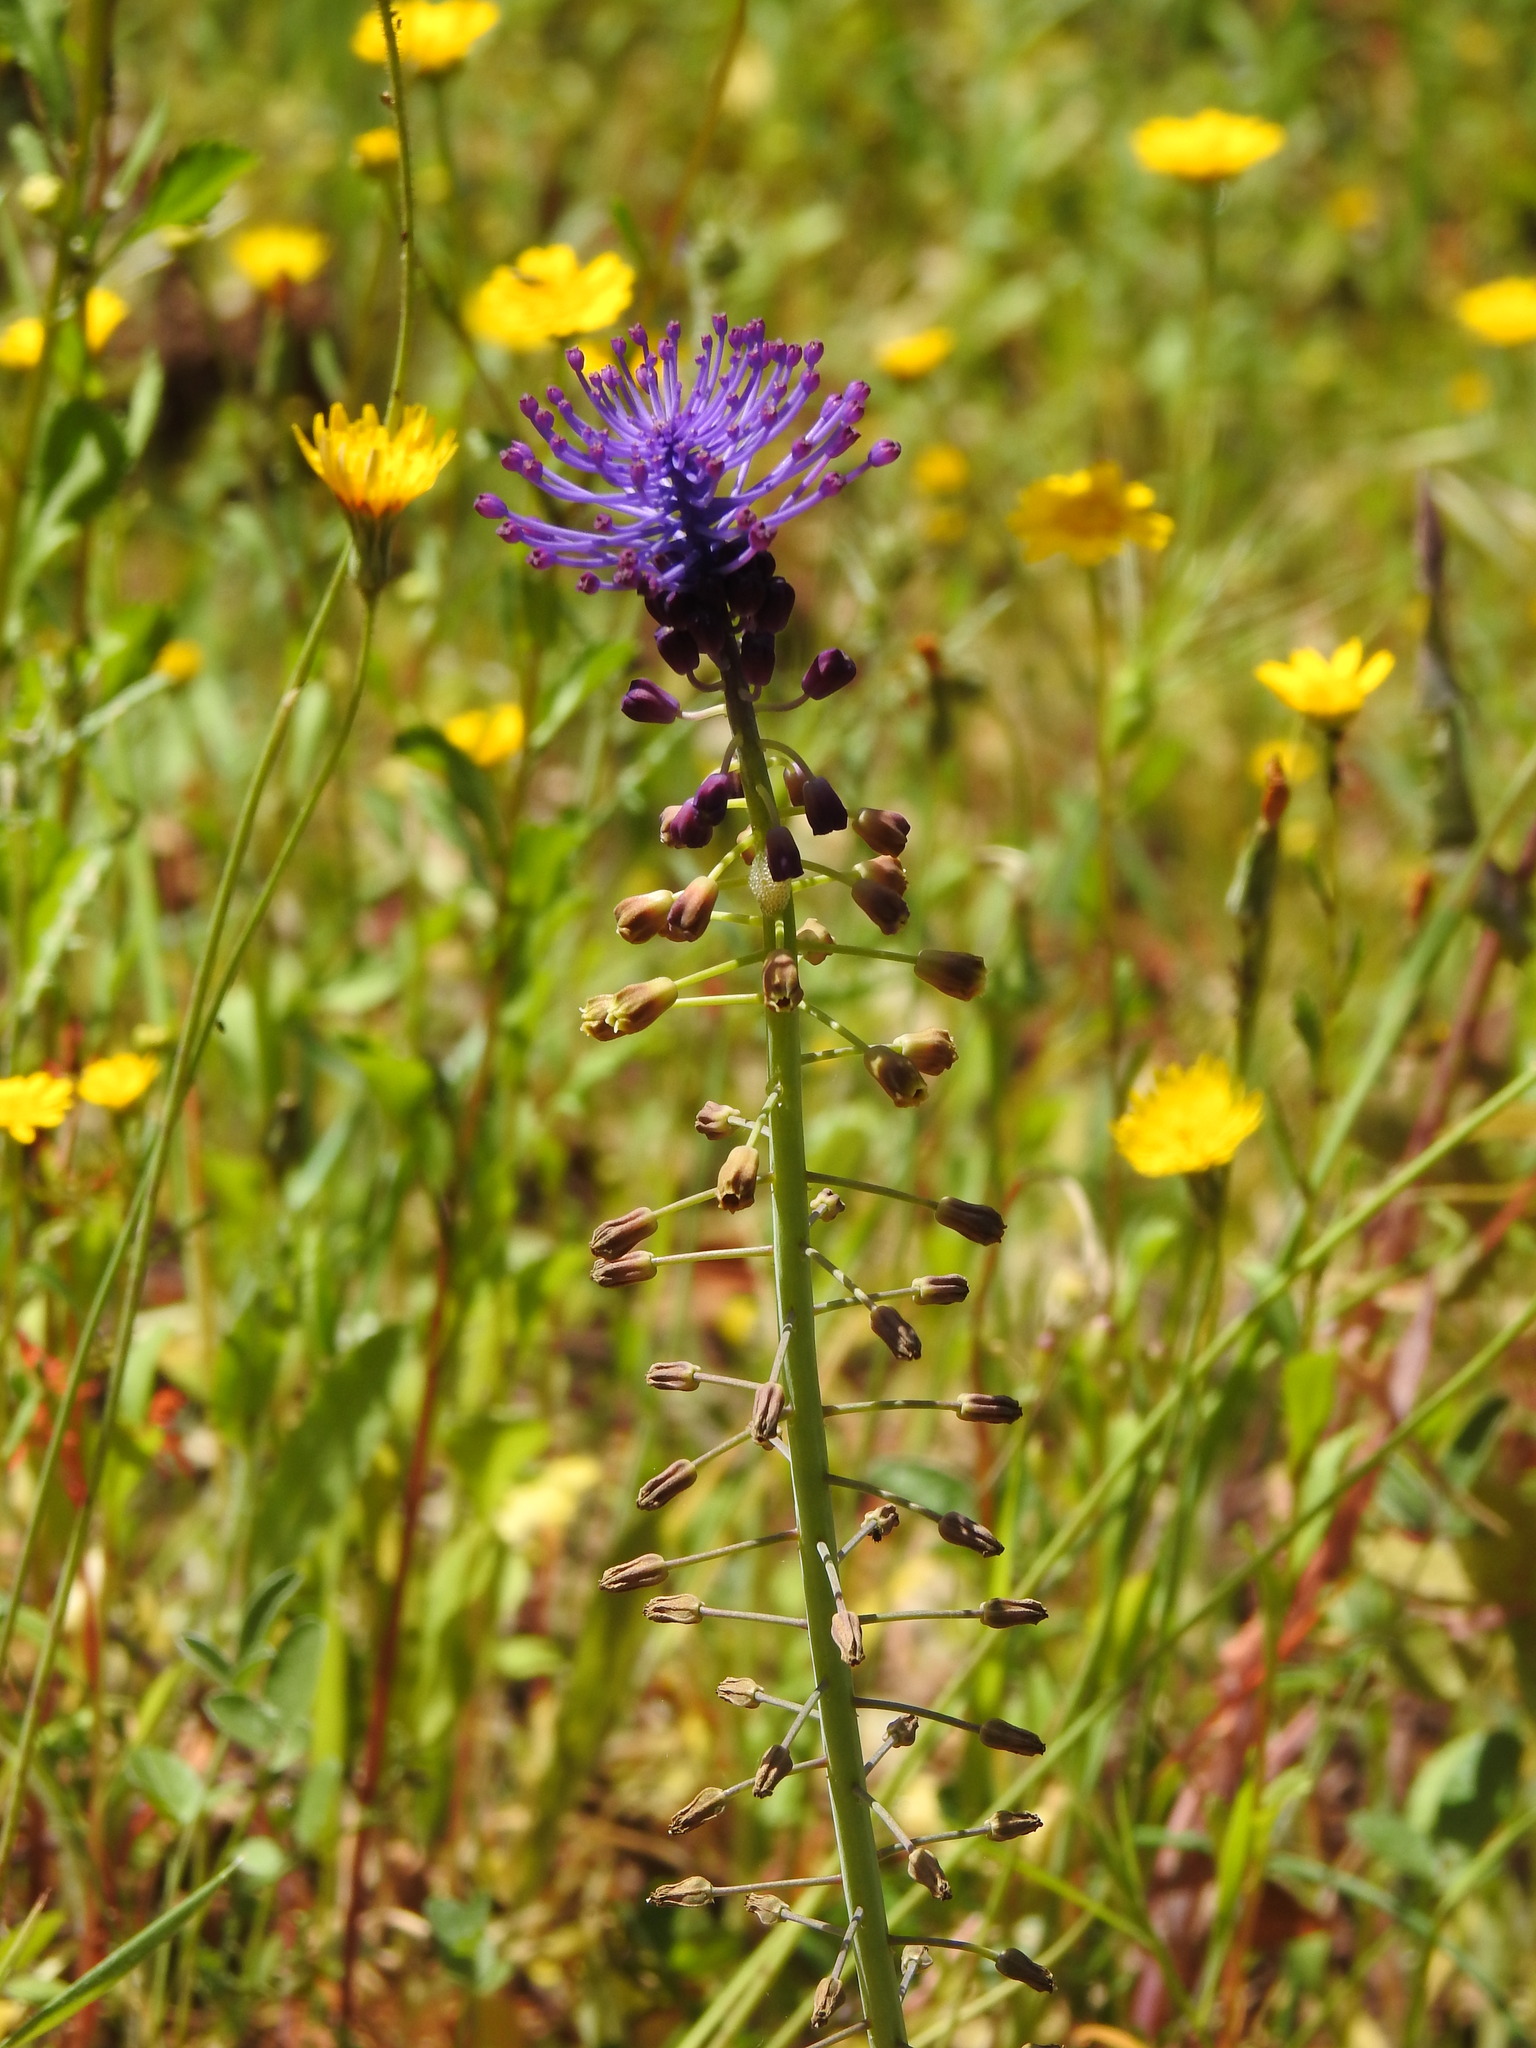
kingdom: Plantae
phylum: Tracheophyta
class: Liliopsida
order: Asparagales
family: Asparagaceae
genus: Muscari
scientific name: Muscari comosum
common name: Tassel hyacinth
